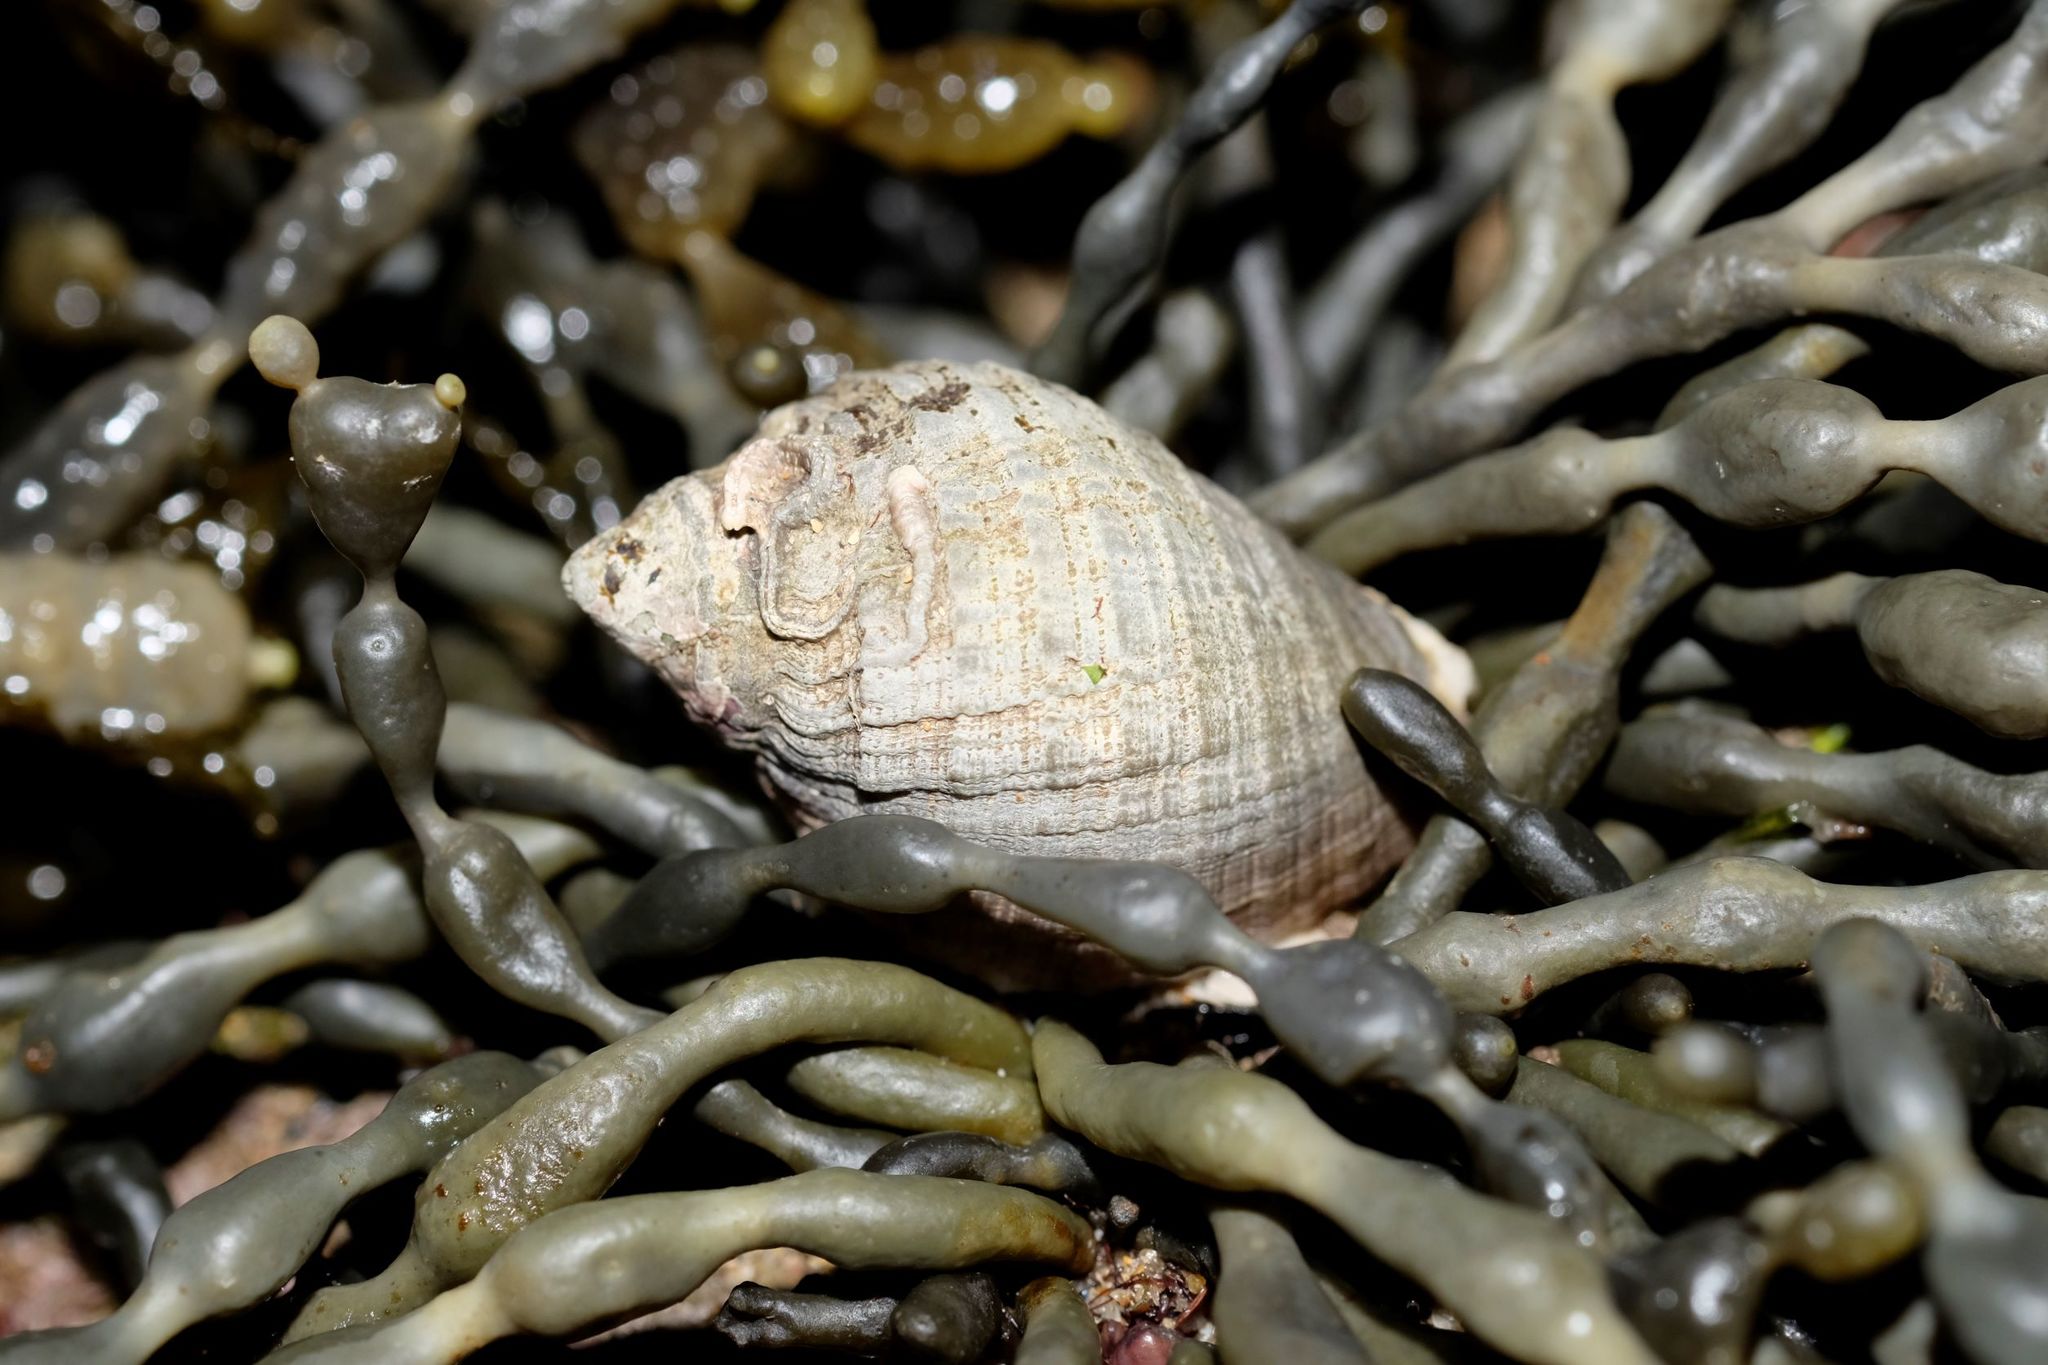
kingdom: Animalia
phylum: Mollusca
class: Gastropoda
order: Neogastropoda
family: Muricidae
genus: Dicathais
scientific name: Dicathais orbita
